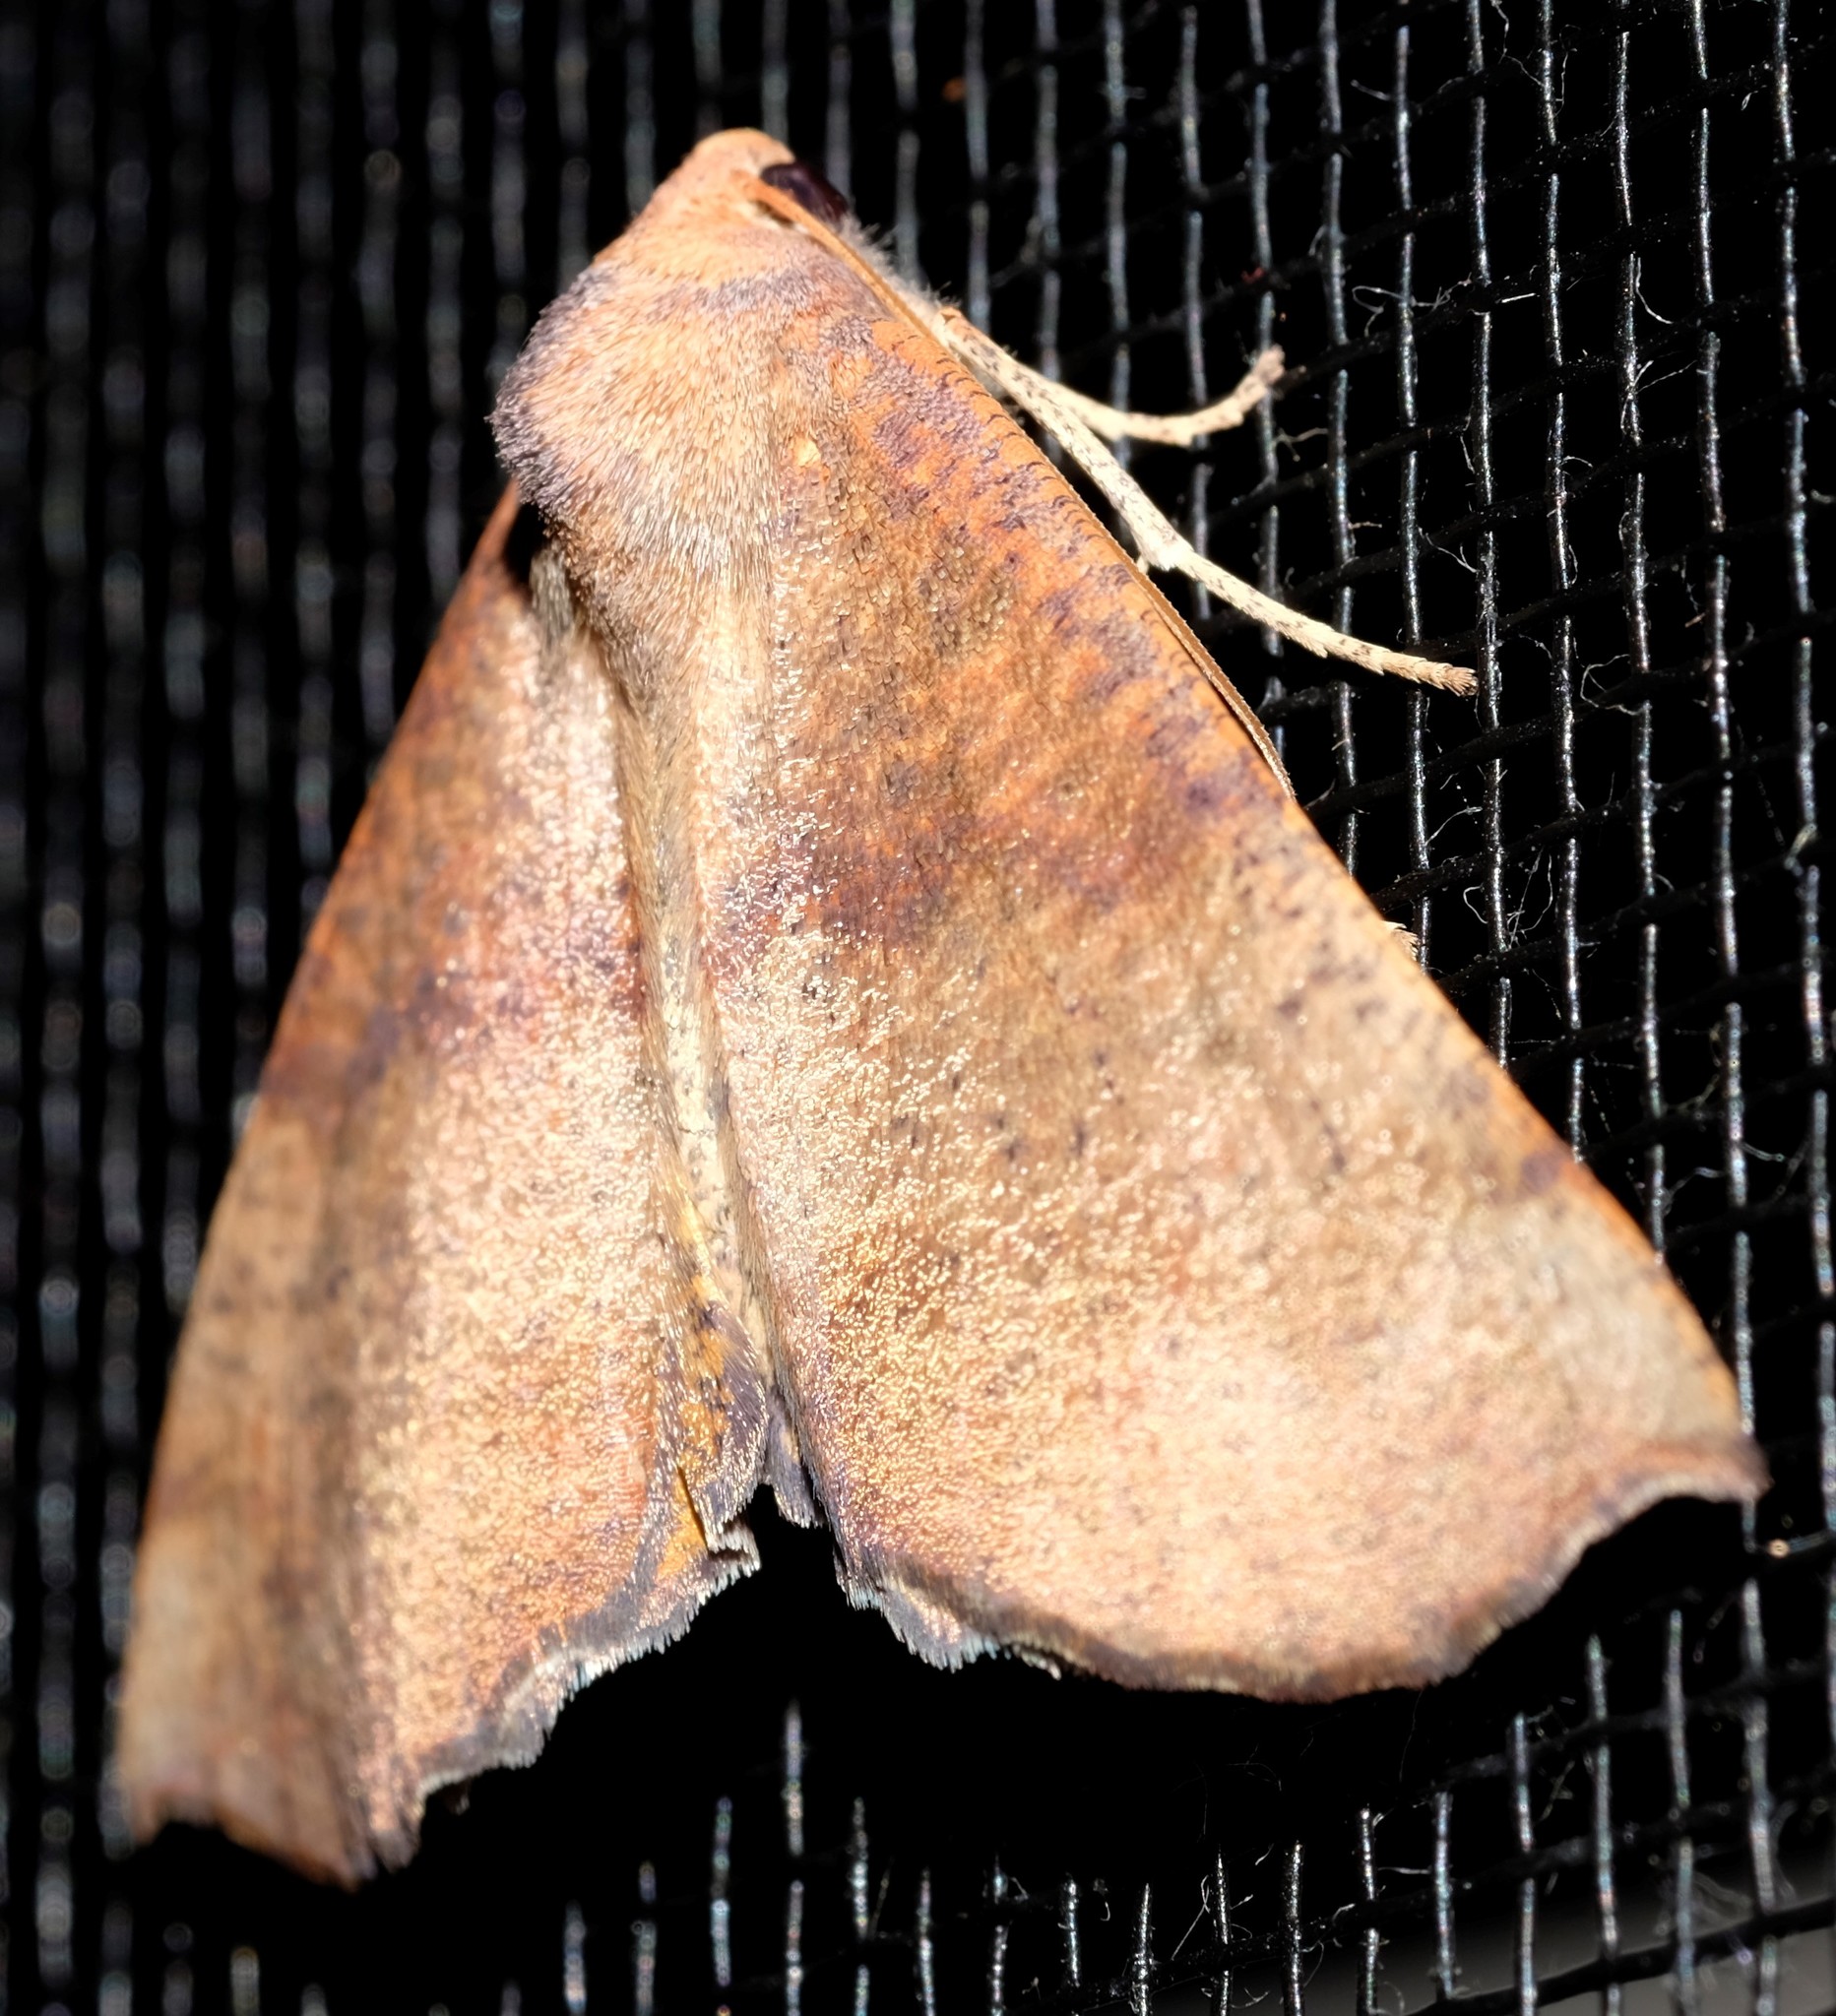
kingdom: Animalia
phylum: Arthropoda
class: Insecta
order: Lepidoptera
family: Geometridae
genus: Mnesampela
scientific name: Mnesampela privata
